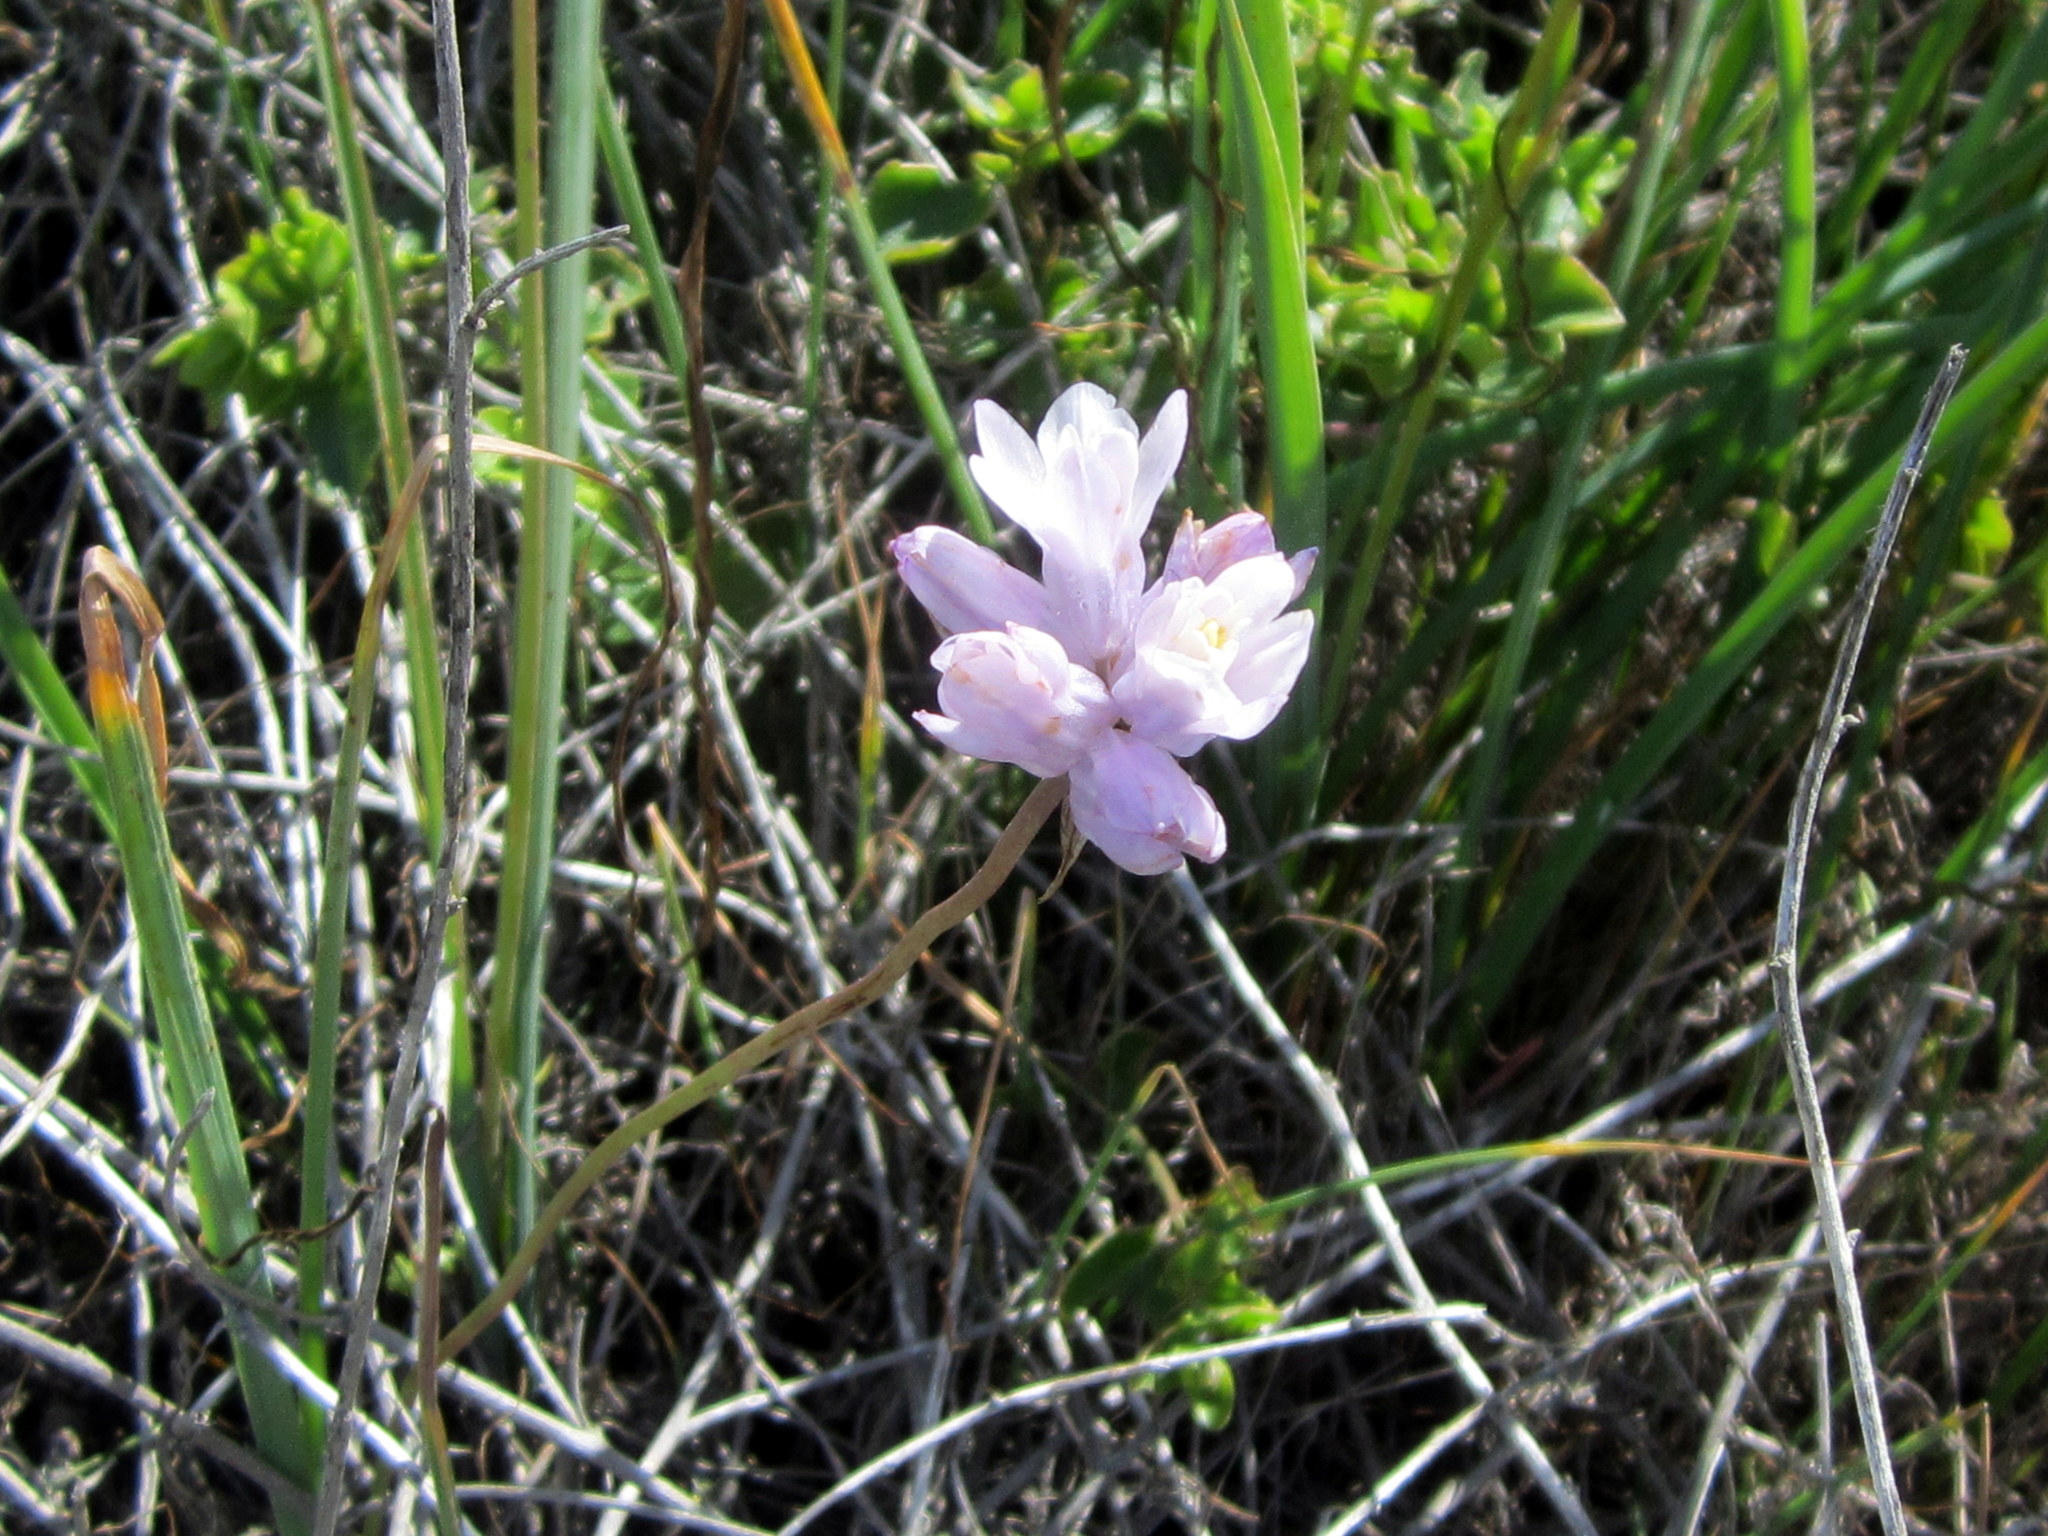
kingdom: Plantae
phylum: Tracheophyta
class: Liliopsida
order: Asparagales
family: Asparagaceae
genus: Dipterostemon
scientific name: Dipterostemon capitatus
